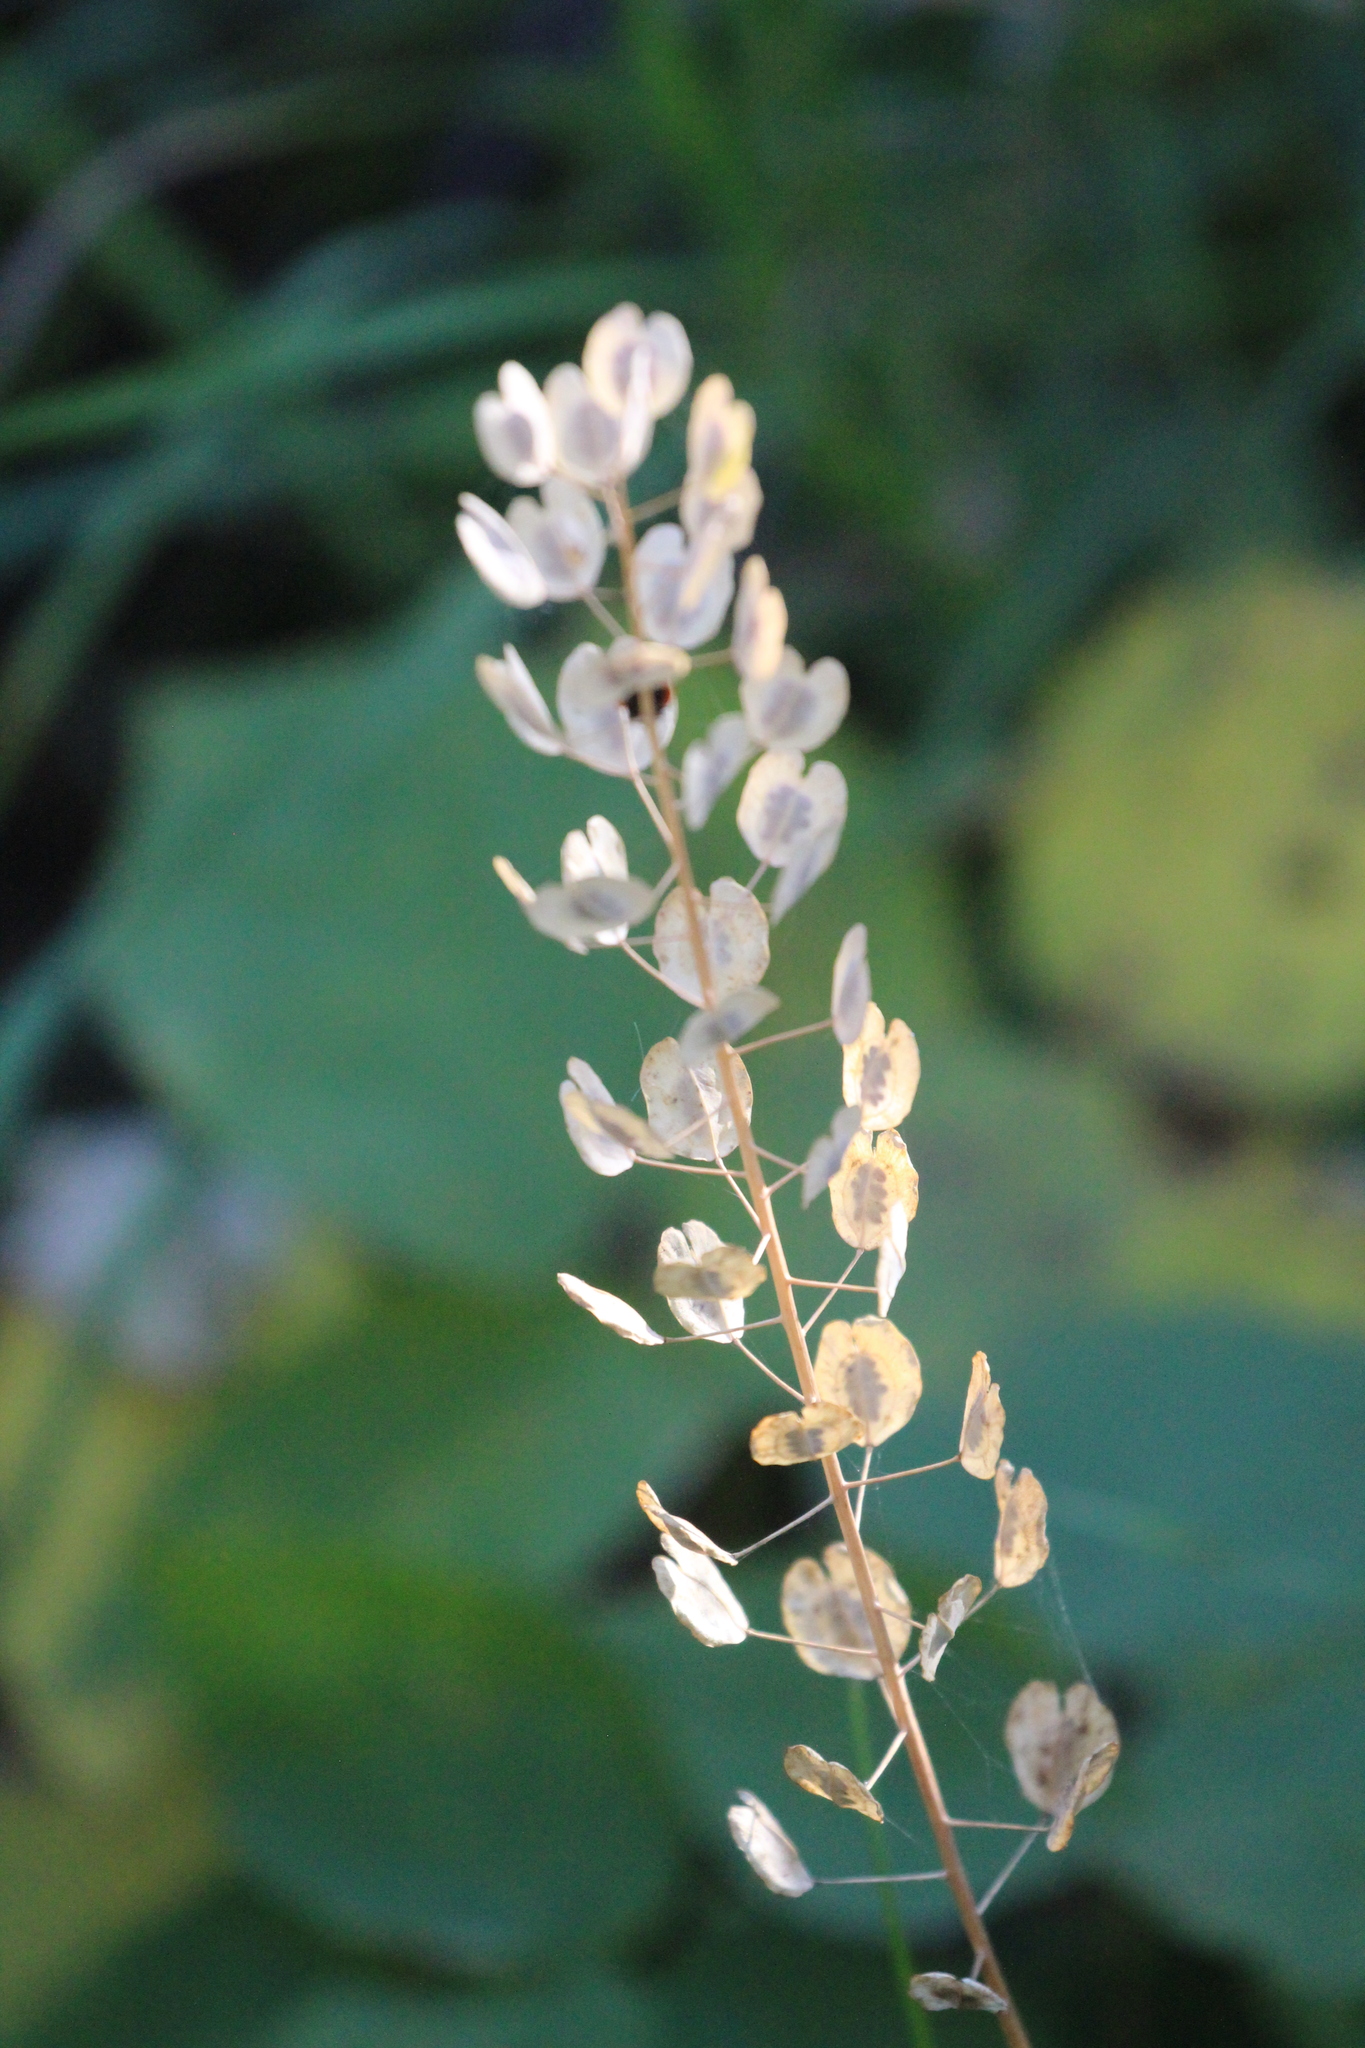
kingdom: Plantae
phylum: Tracheophyta
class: Magnoliopsida
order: Brassicales
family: Brassicaceae
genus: Thlaspi
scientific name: Thlaspi arvense
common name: Field pennycress
